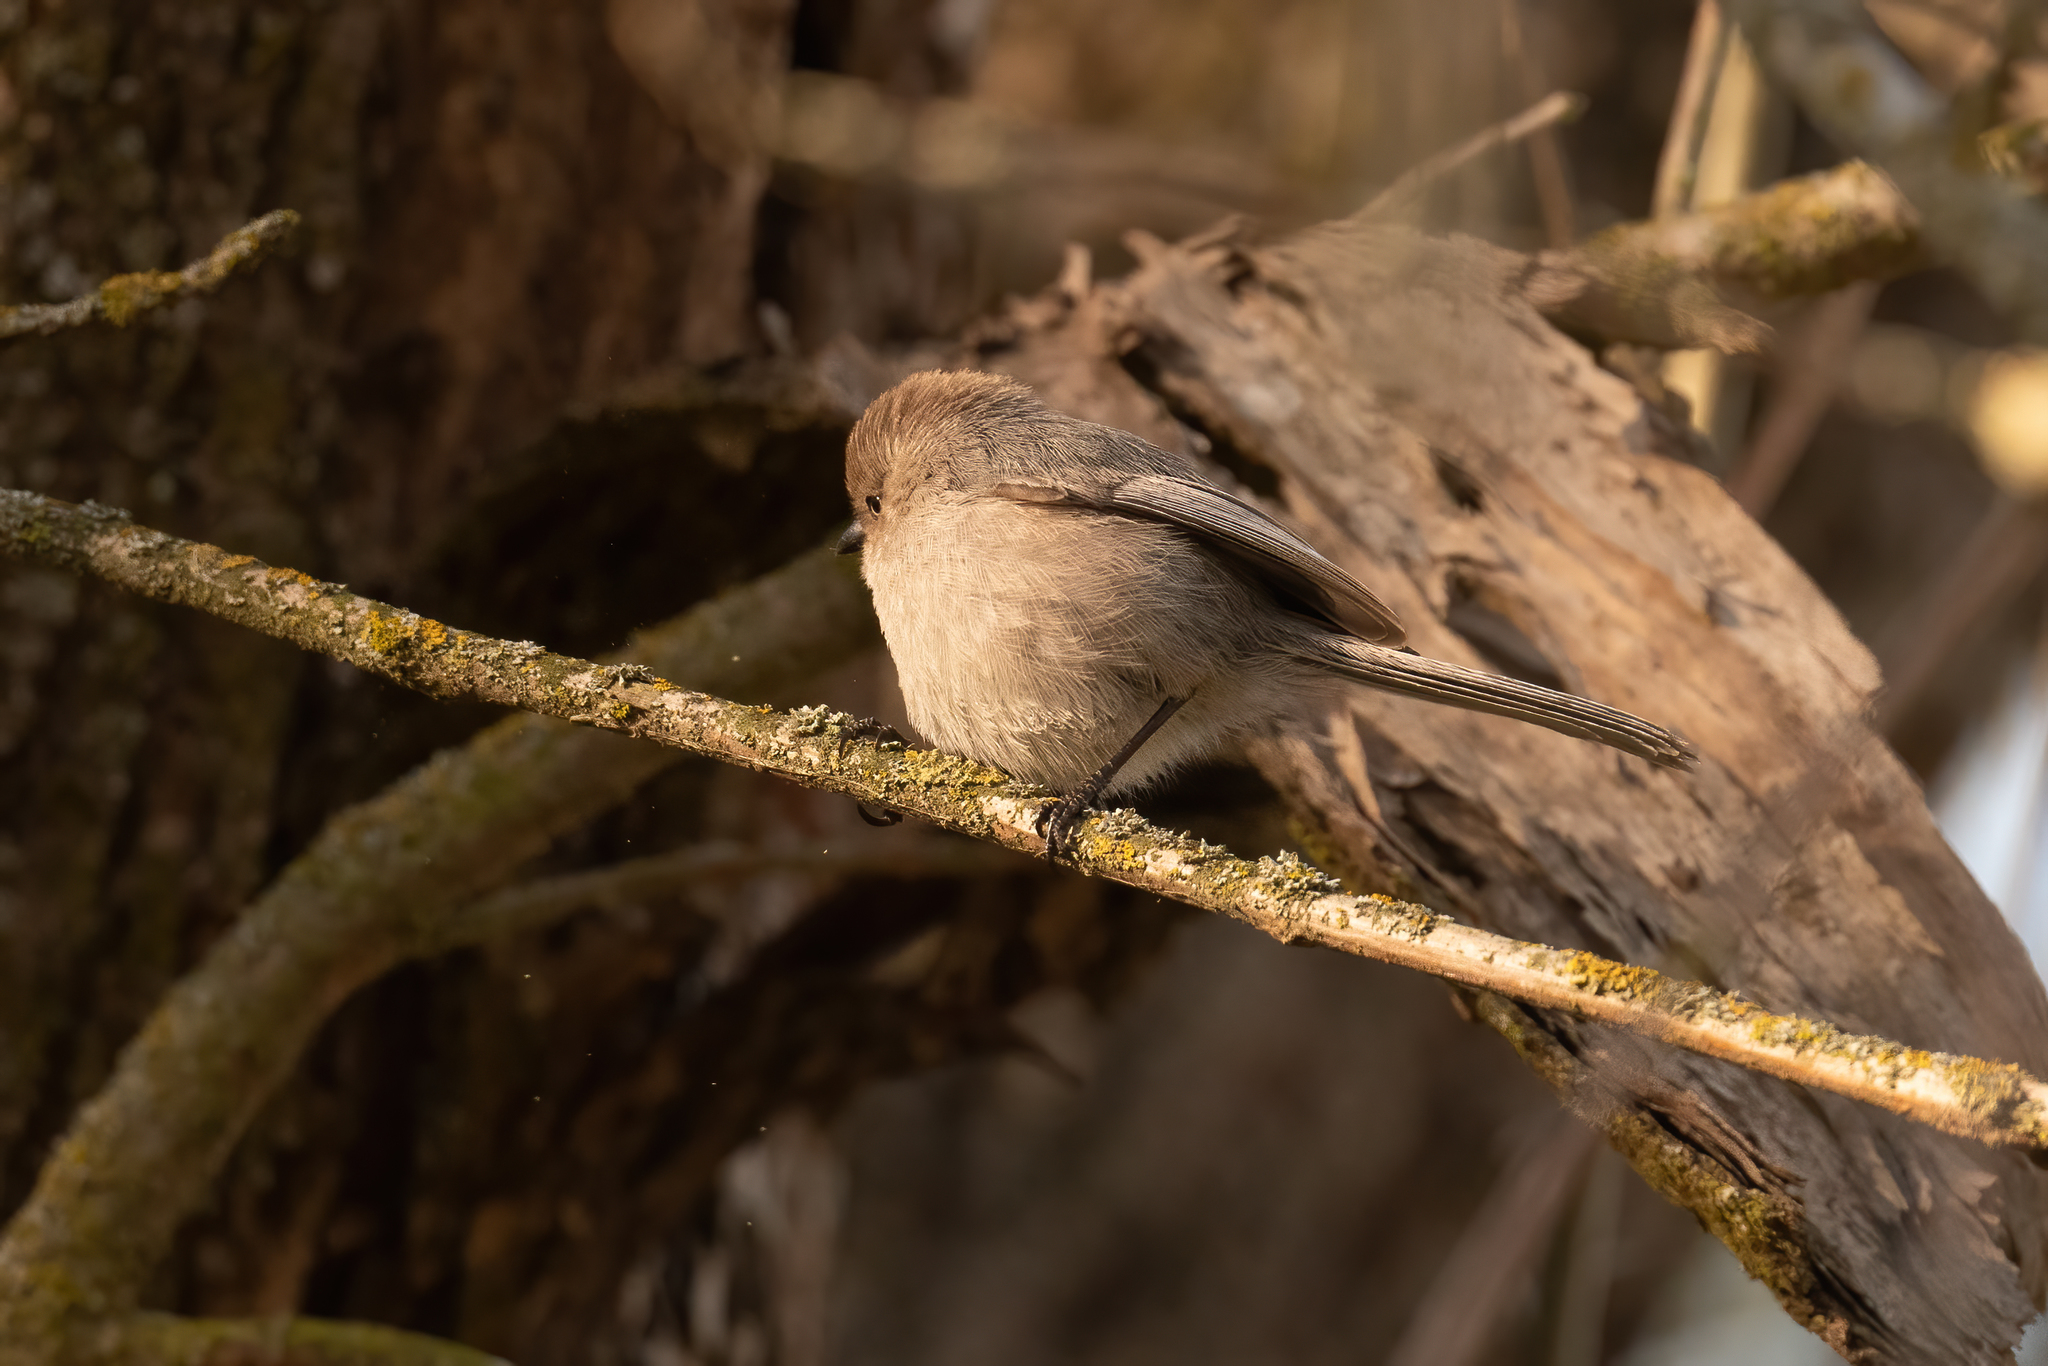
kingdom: Animalia
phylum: Chordata
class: Aves
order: Passeriformes
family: Aegithalidae
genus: Psaltriparus
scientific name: Psaltriparus minimus
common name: American bushtit
